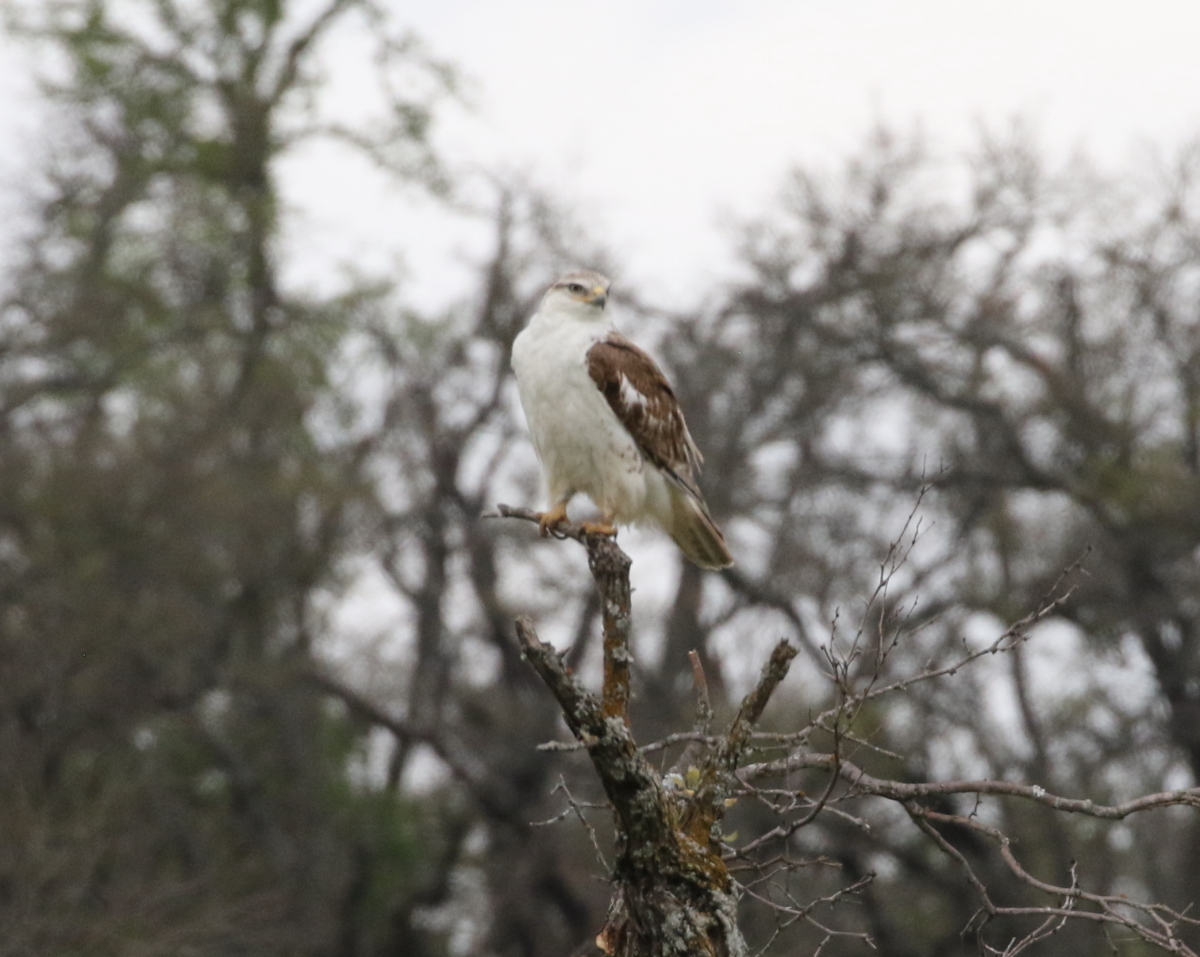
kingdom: Animalia
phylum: Chordata
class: Aves
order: Accipitriformes
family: Accipitridae
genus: Buteo
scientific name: Buteo regalis
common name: Ferruginous hawk
